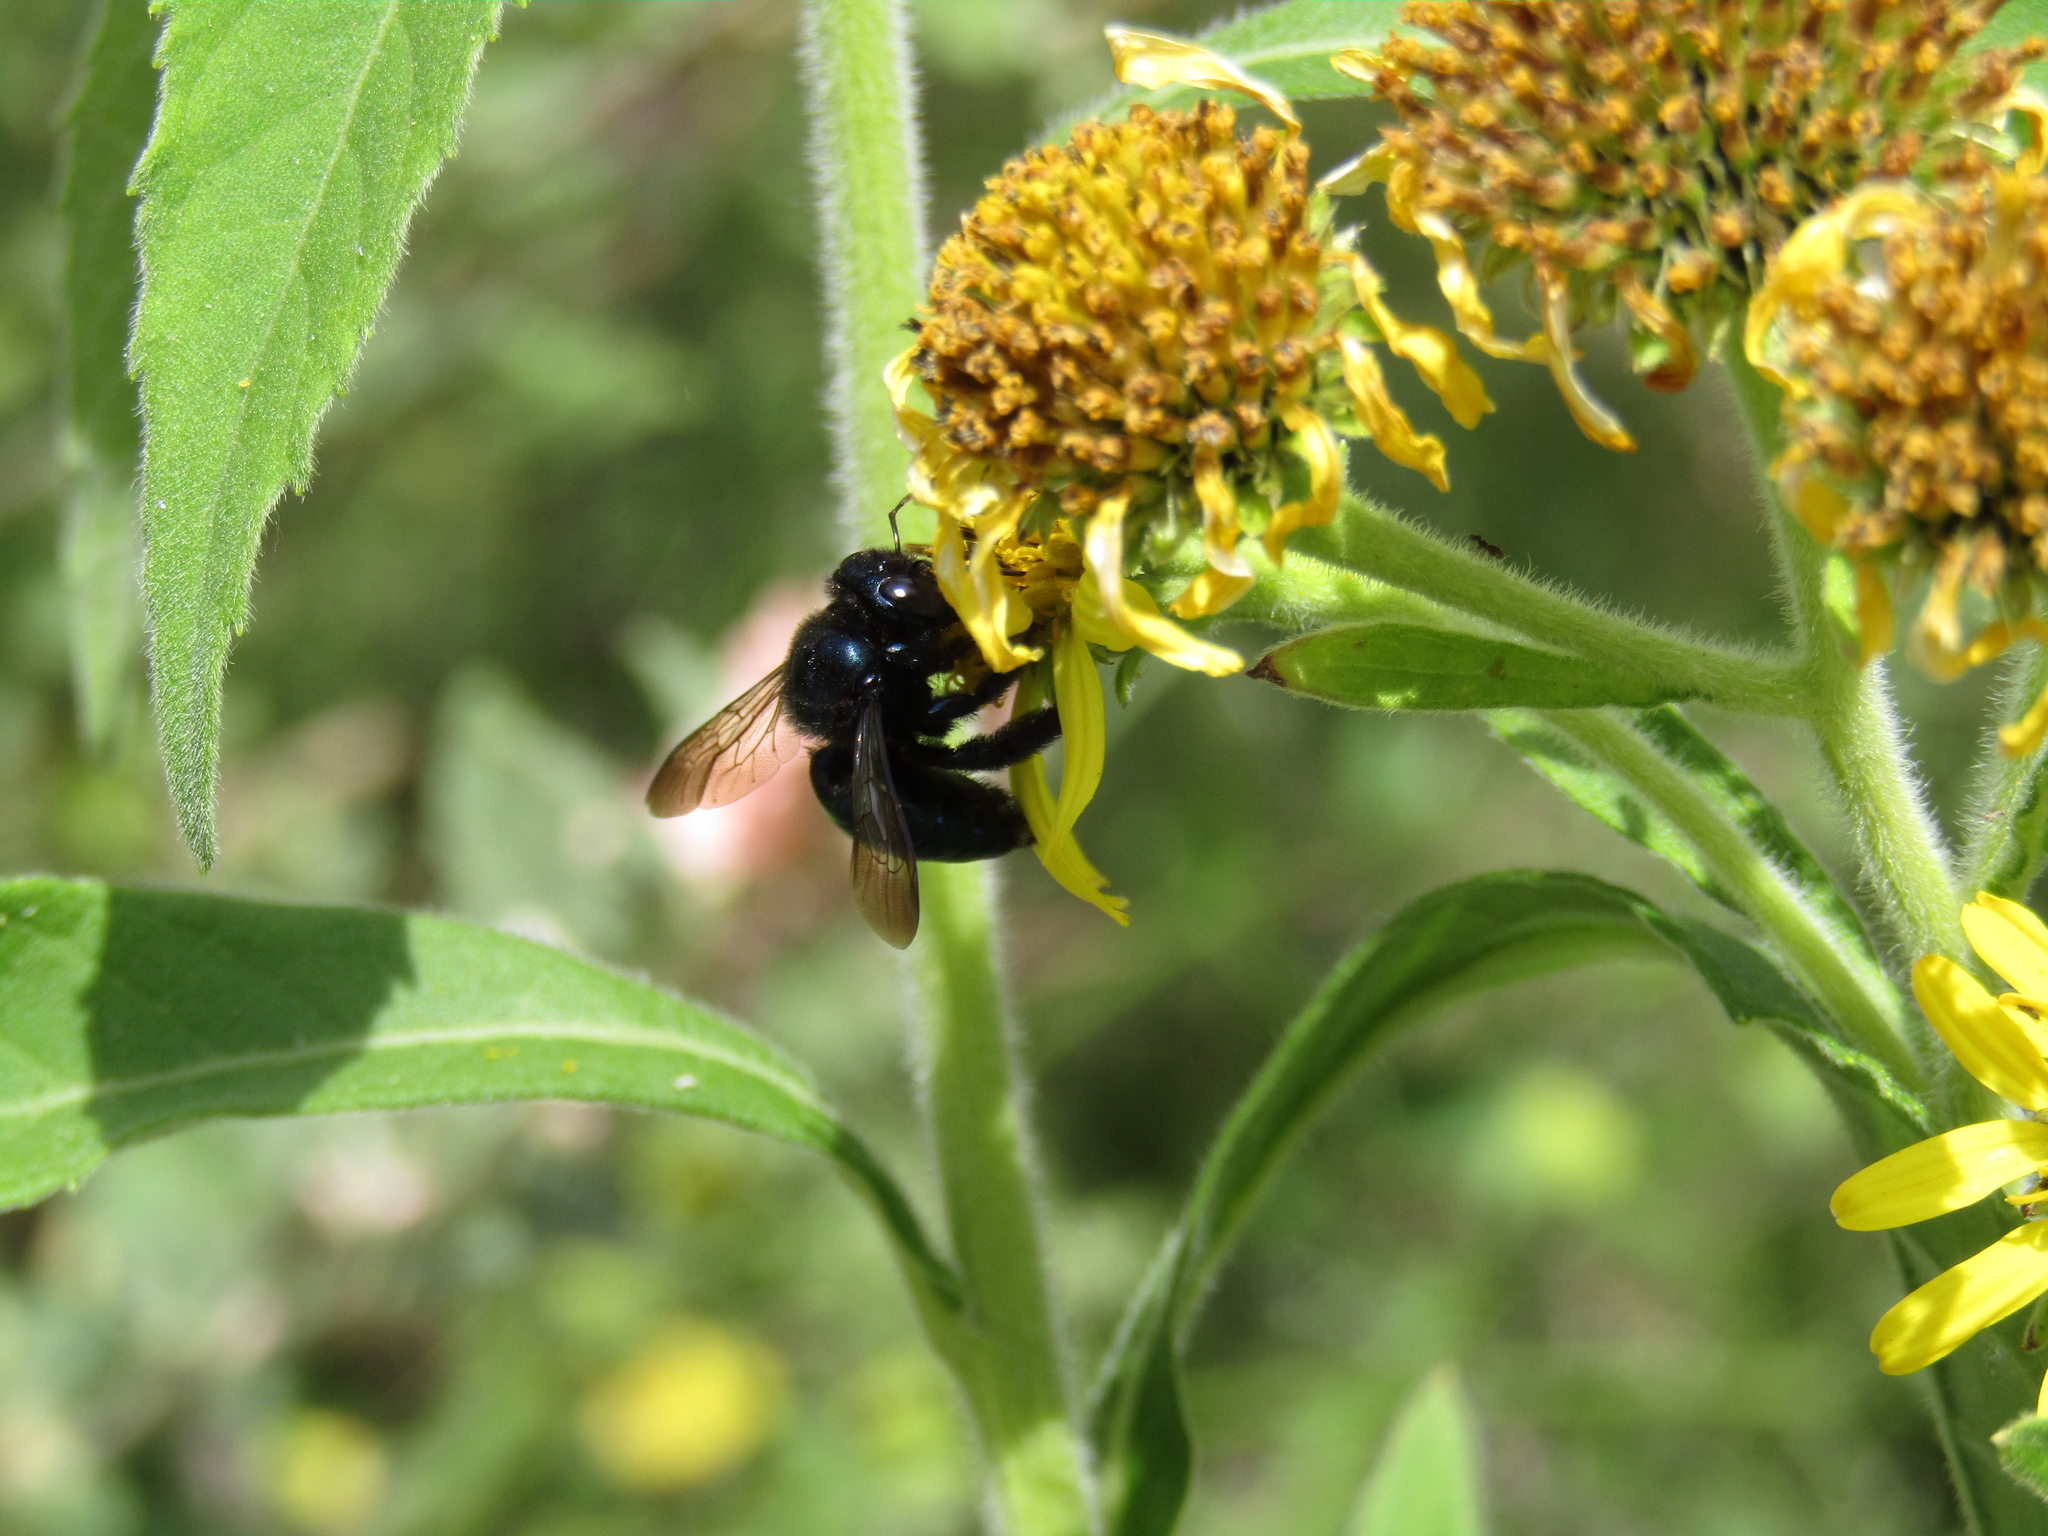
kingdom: Animalia
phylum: Arthropoda
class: Insecta
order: Hymenoptera
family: Apidae
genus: Xylocopa
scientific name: Xylocopa splendidula
